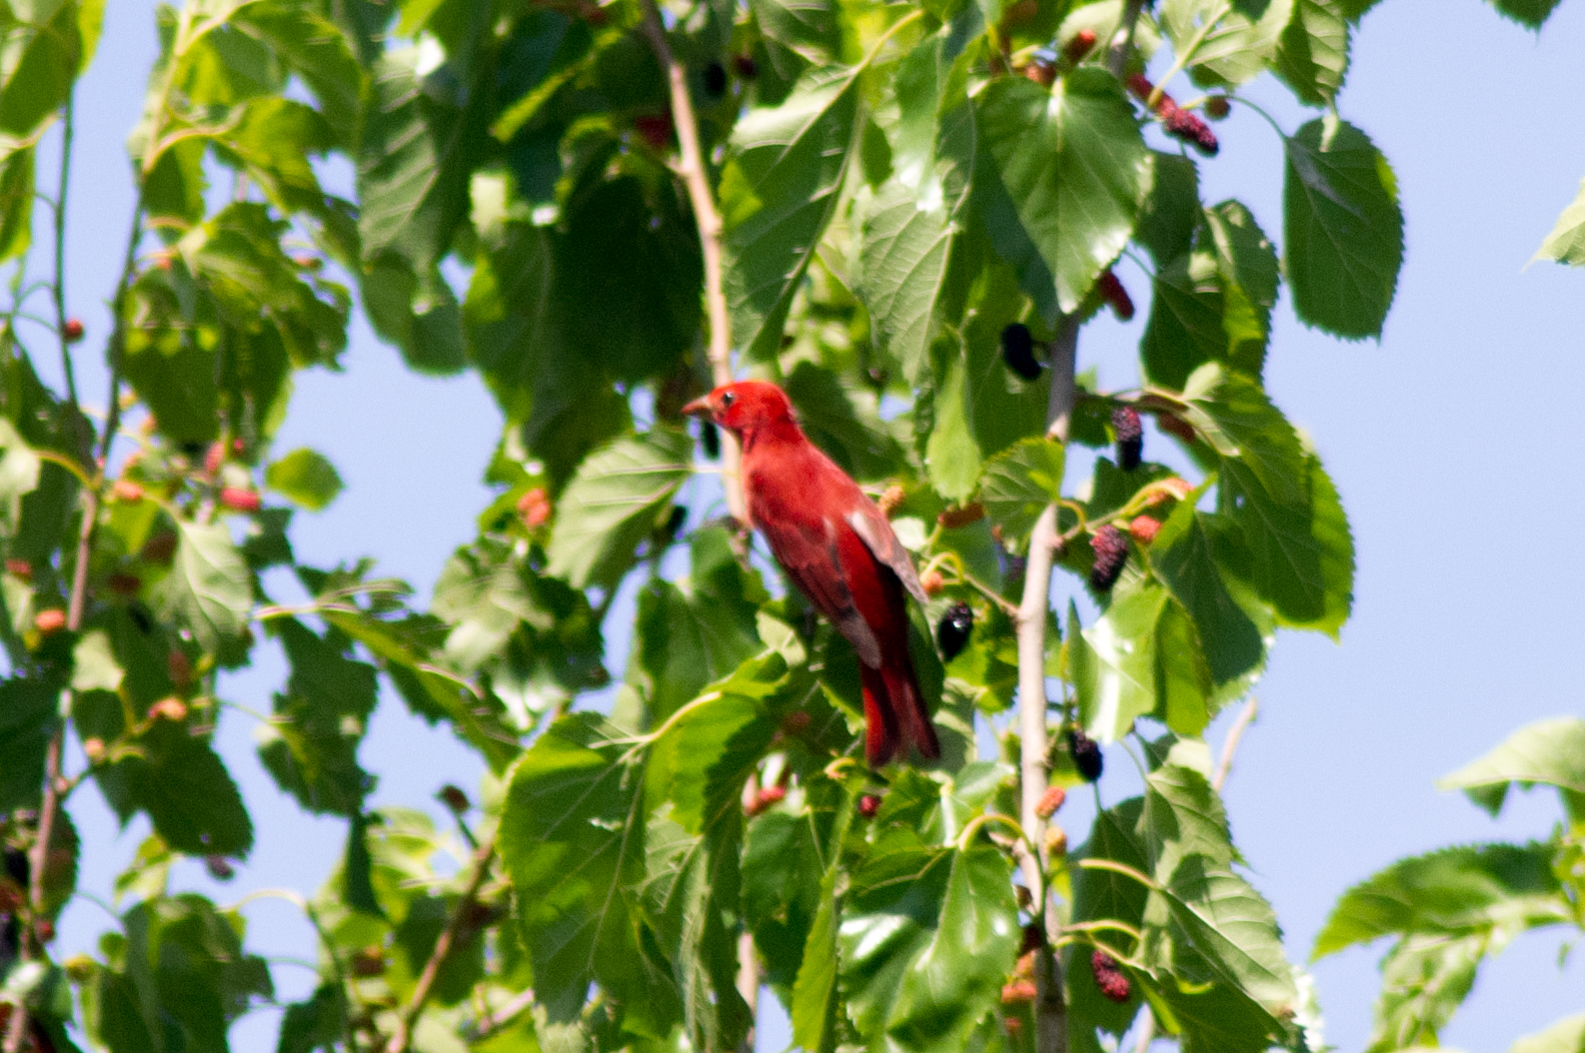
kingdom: Animalia
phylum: Chordata
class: Aves
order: Passeriformes
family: Cardinalidae
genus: Piranga
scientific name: Piranga rubra
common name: Summer tanager
